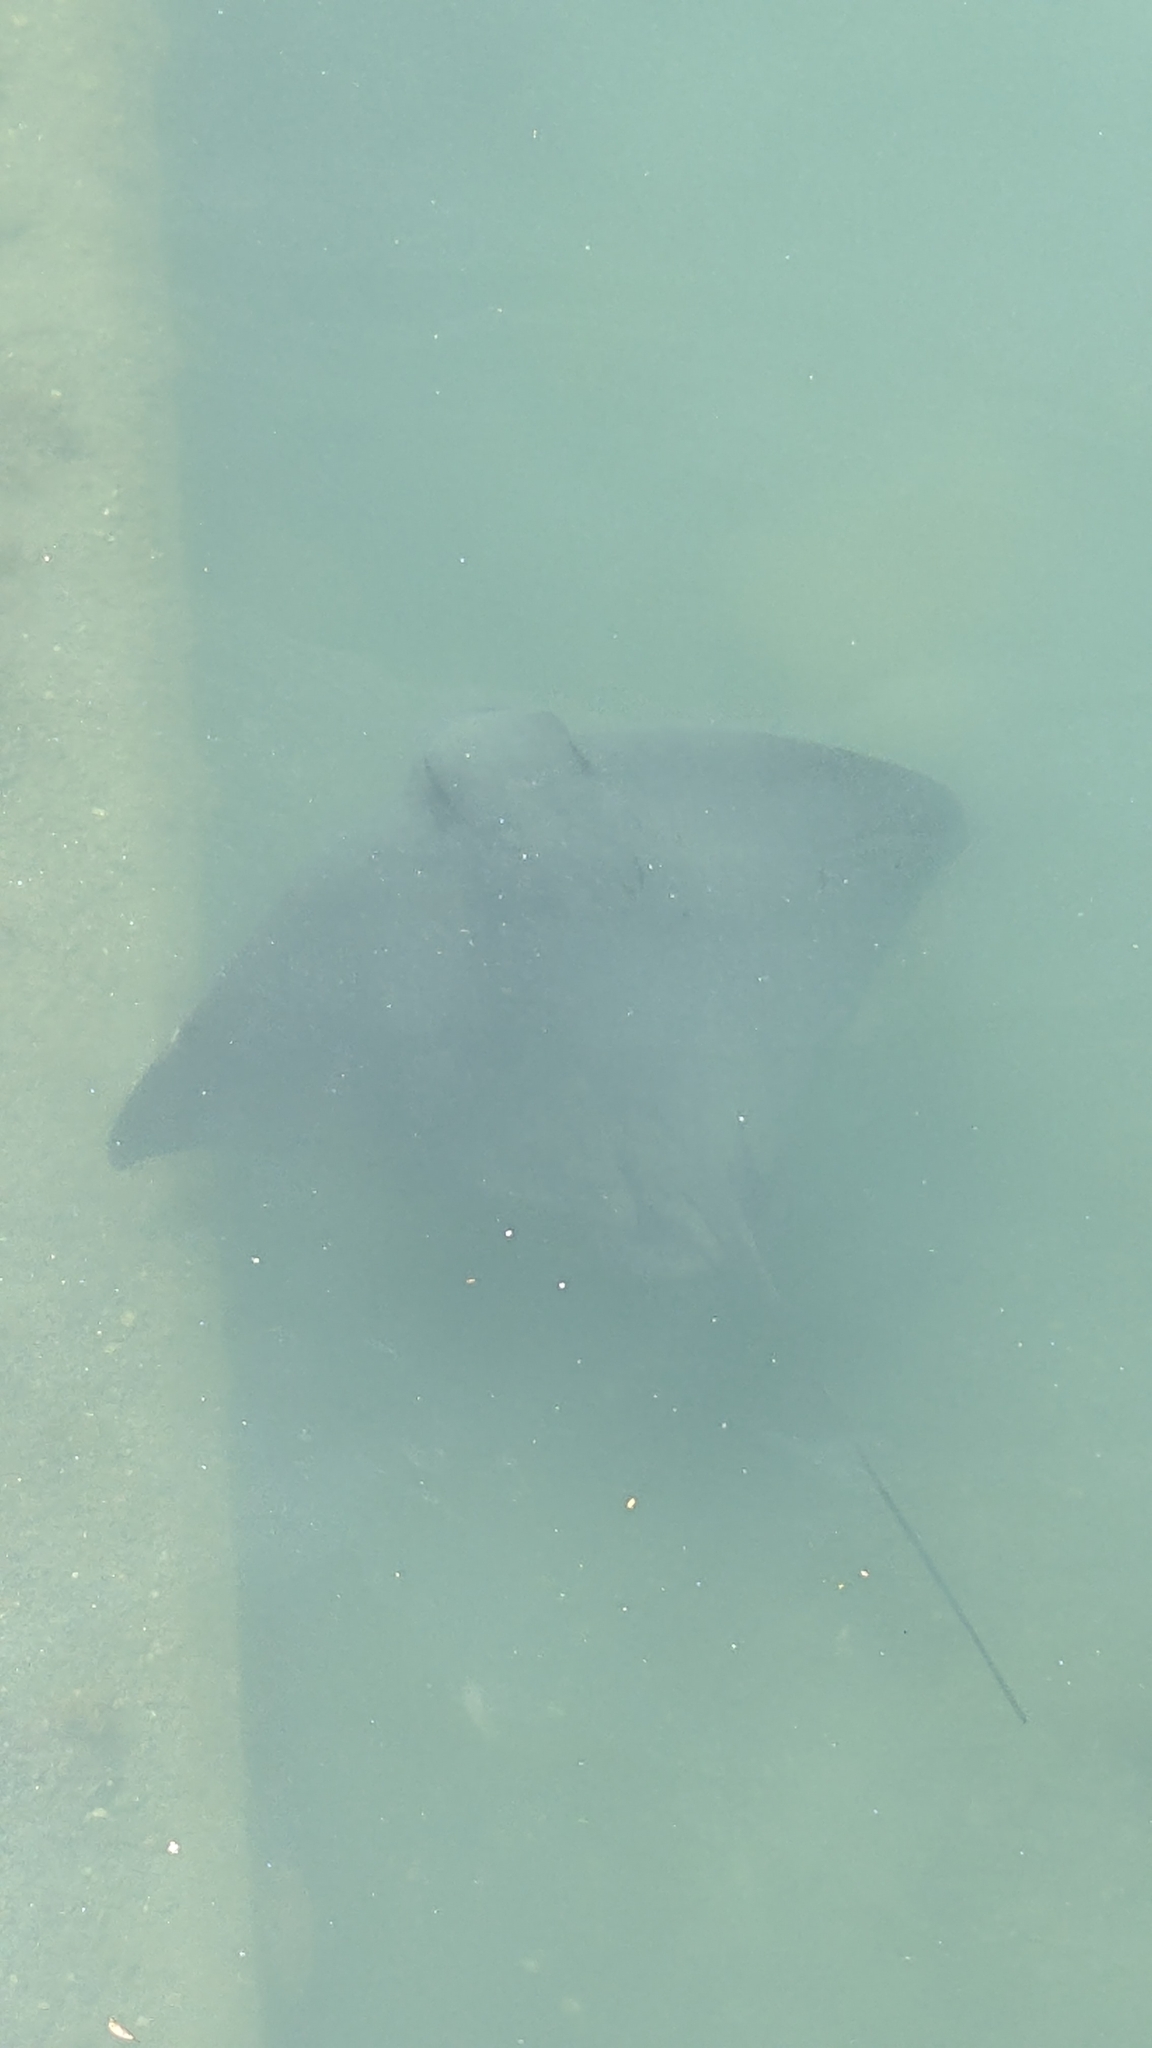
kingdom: Animalia
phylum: Chordata
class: Elasmobranchii
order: Myliobatiformes
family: Myliobatidae
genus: Myliobatis
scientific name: Myliobatis tenuicaudatus
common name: Eagle ray
